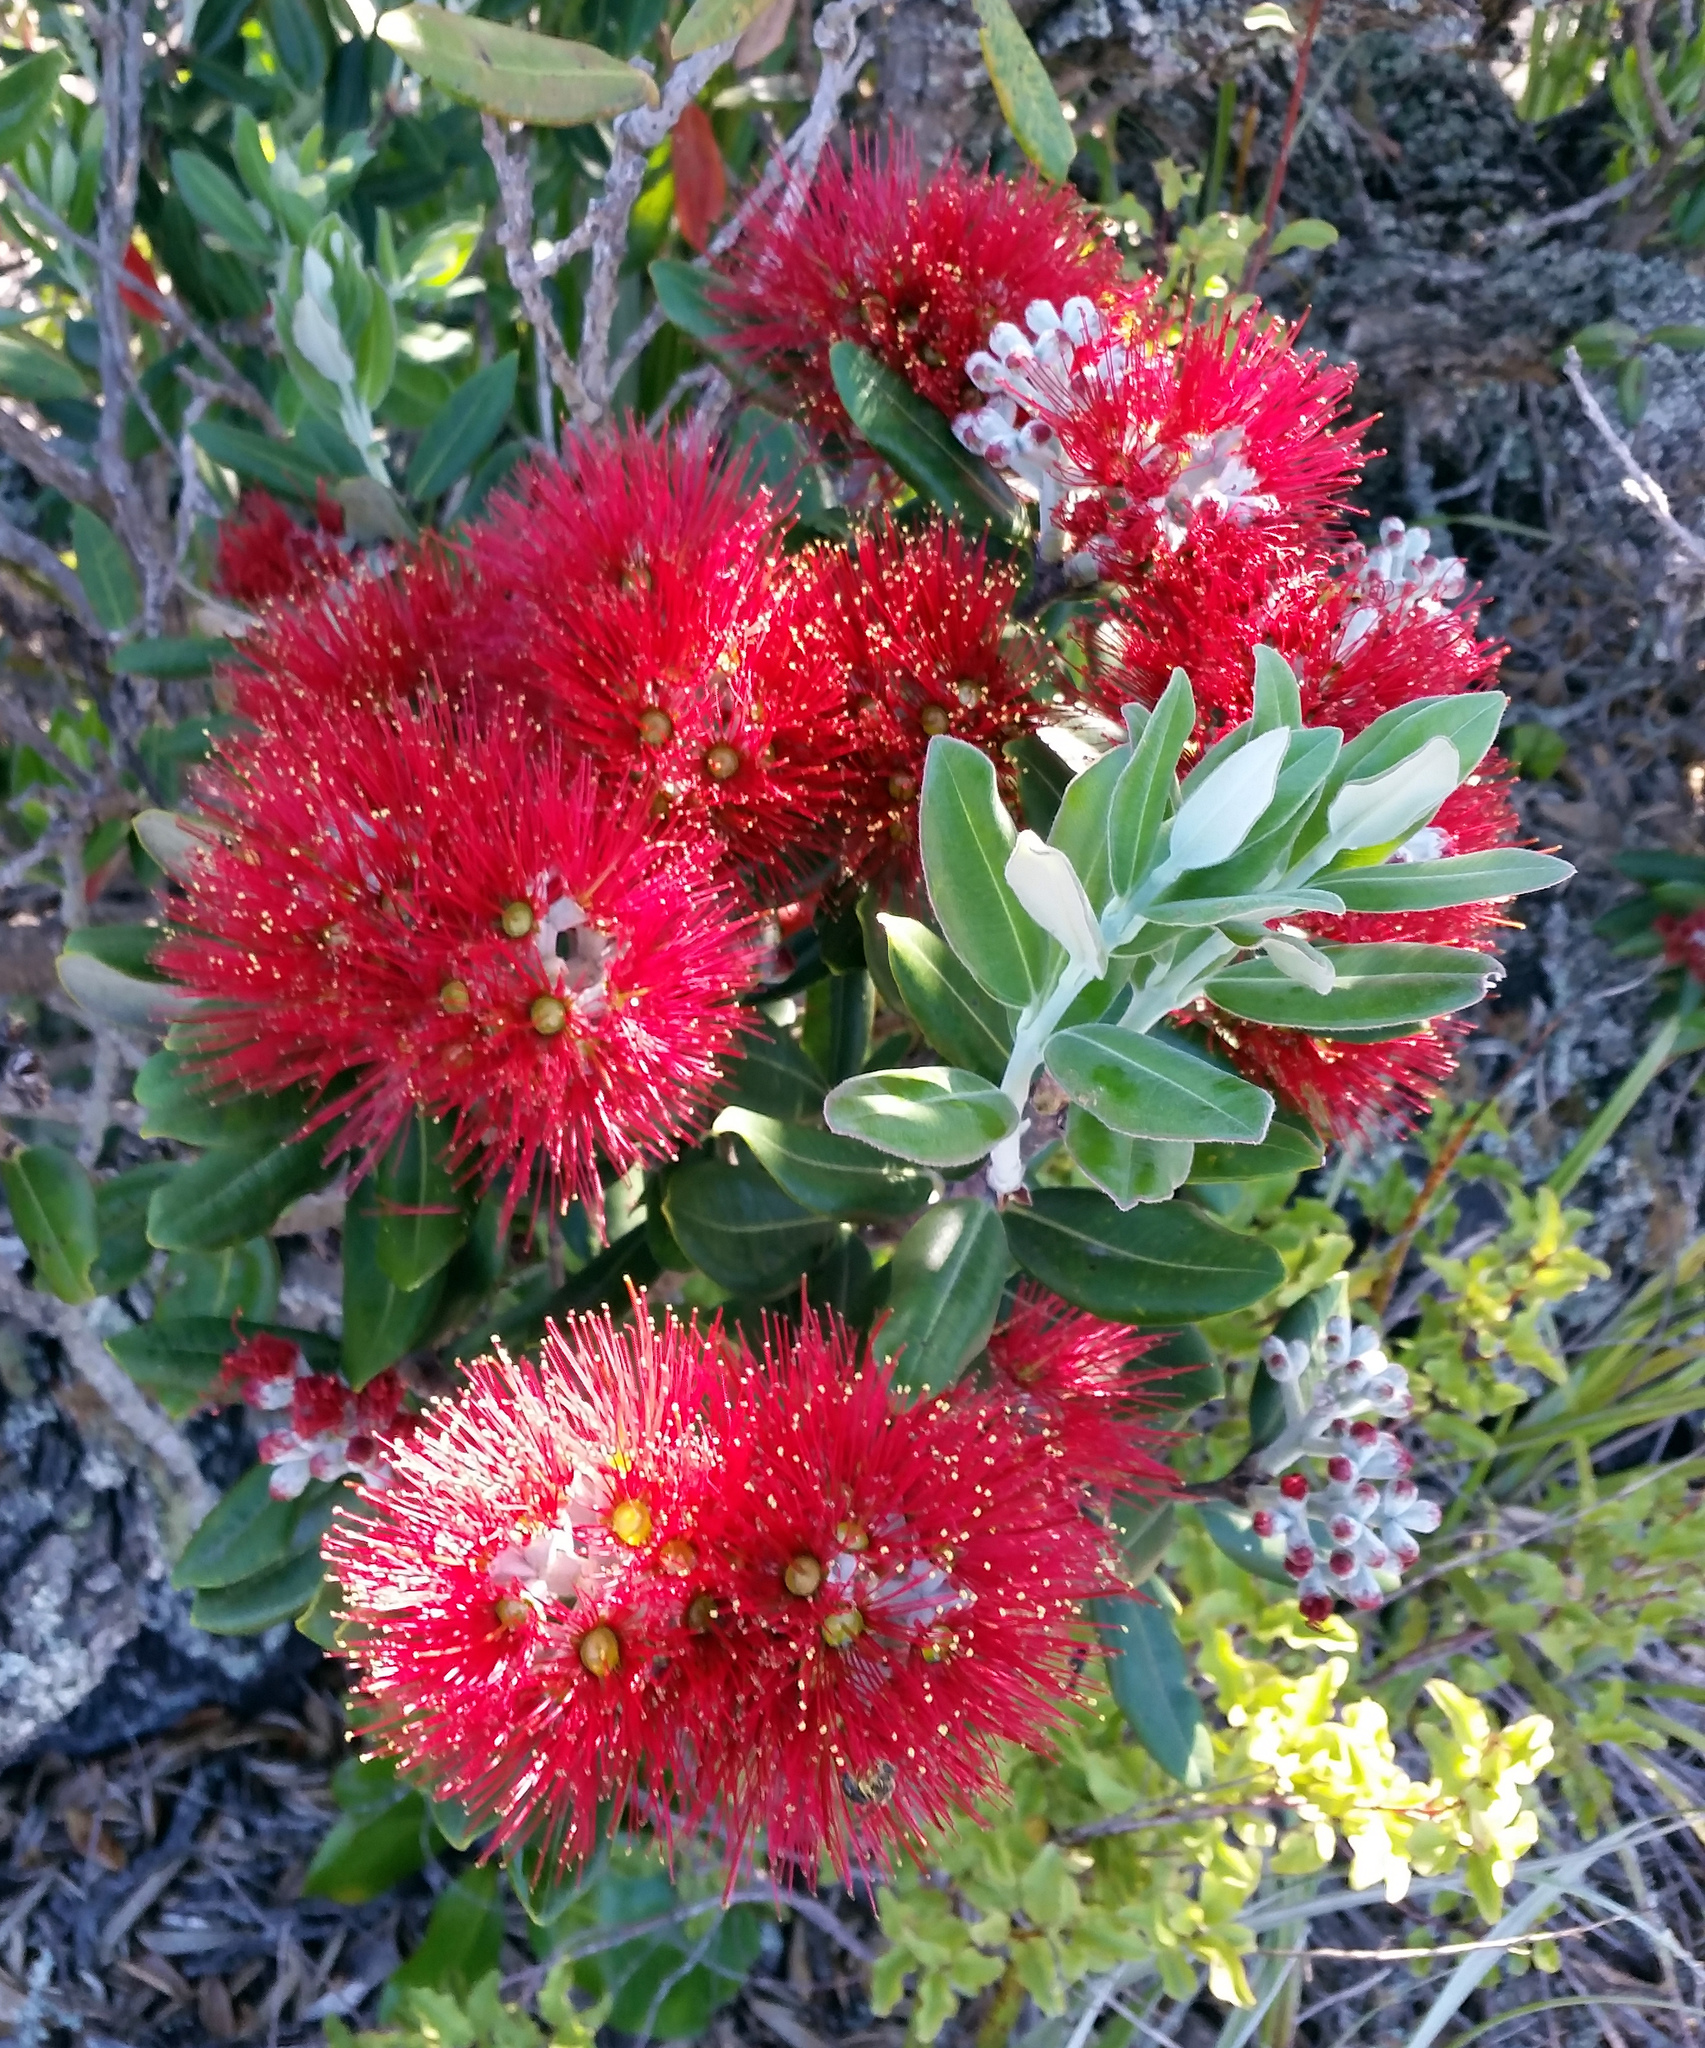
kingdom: Plantae
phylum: Tracheophyta
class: Magnoliopsida
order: Myrtales
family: Myrtaceae
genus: Metrosideros
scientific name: Metrosideros excelsa
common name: New zealand christmastree
